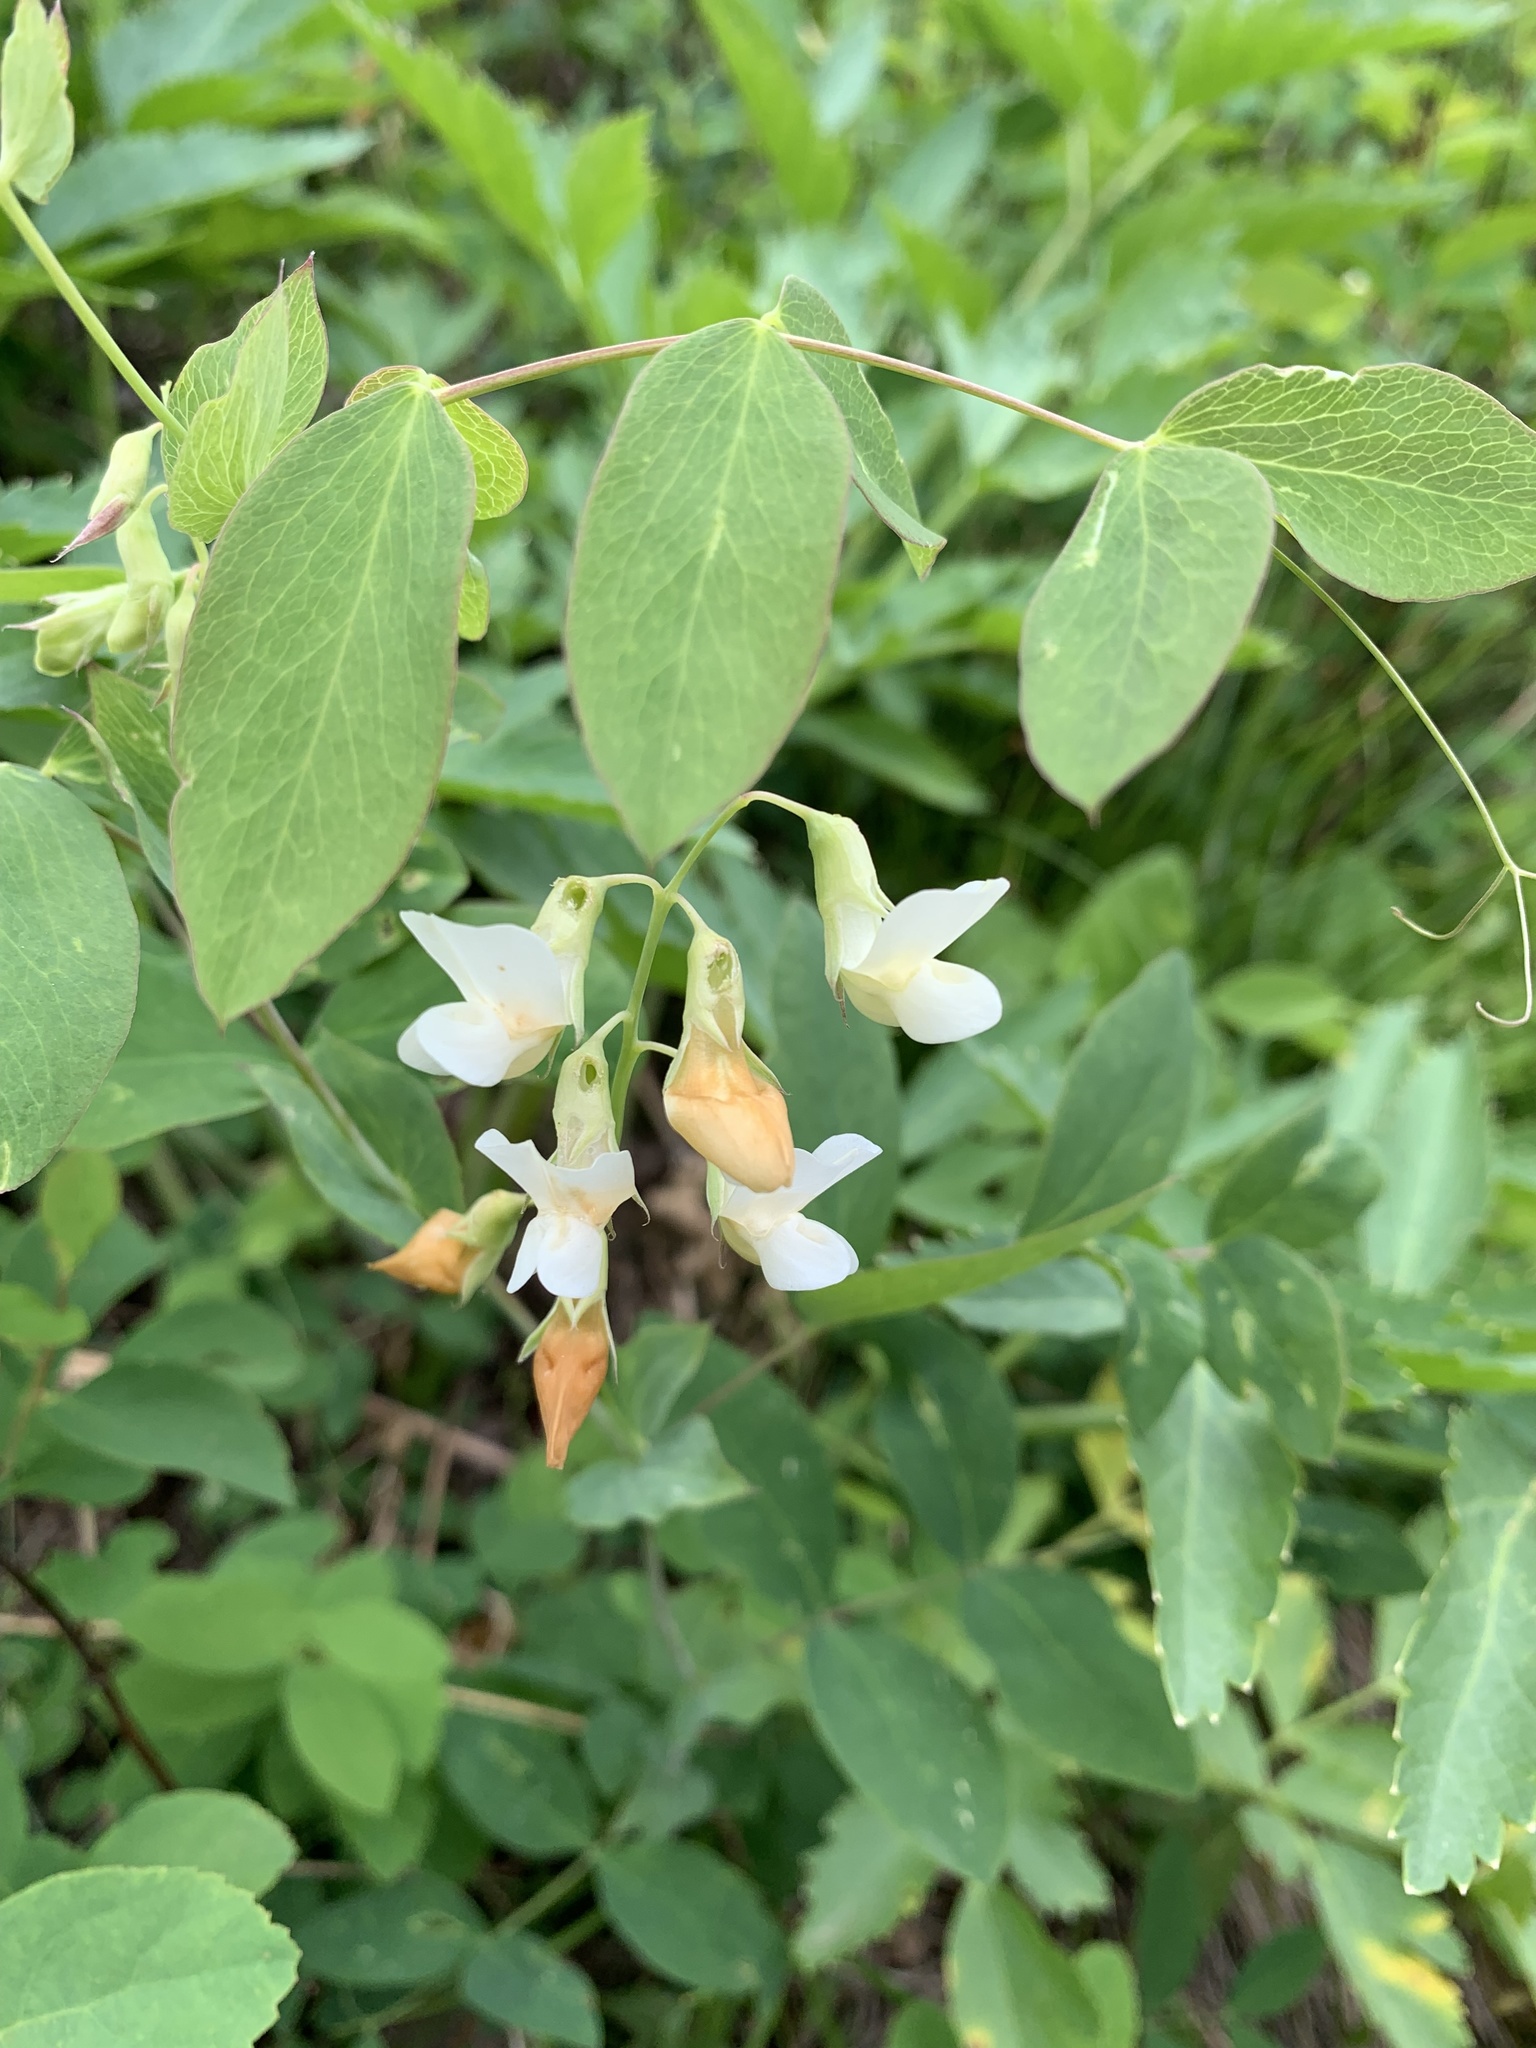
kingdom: Plantae
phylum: Tracheophyta
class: Magnoliopsida
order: Fabales
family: Fabaceae
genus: Lathyrus
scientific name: Lathyrus ochroleucus
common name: Pale vetchling
